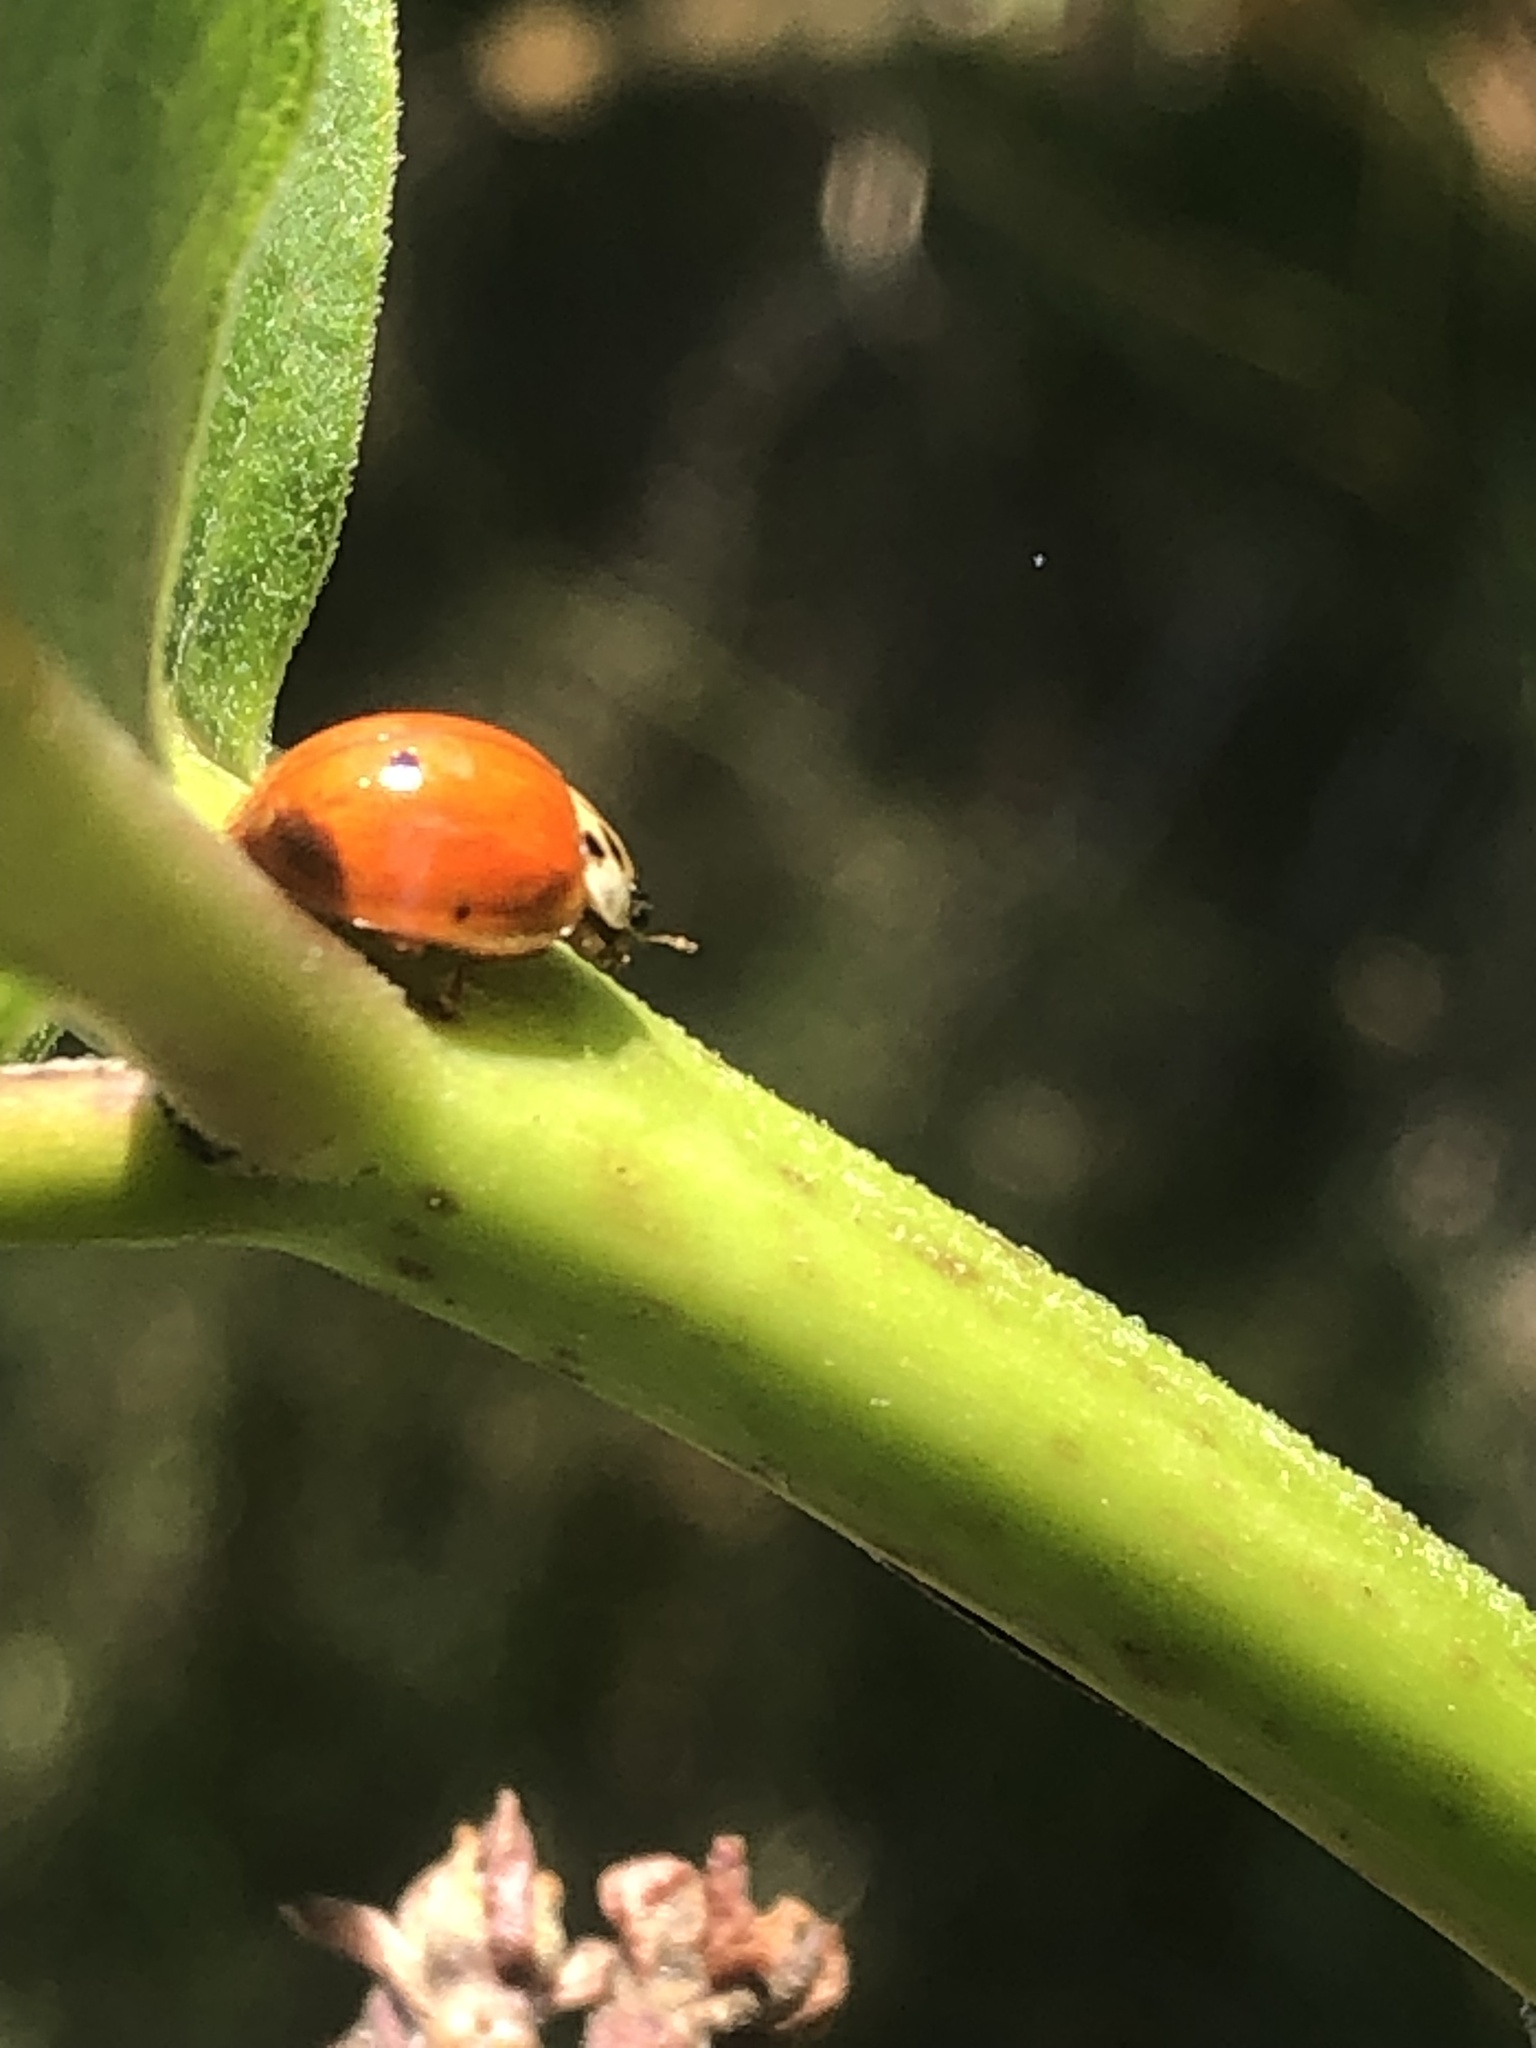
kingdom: Animalia
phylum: Arthropoda
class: Insecta
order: Coleoptera
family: Coccinellidae
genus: Harmonia
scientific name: Harmonia axyridis
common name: Harlequin ladybird
